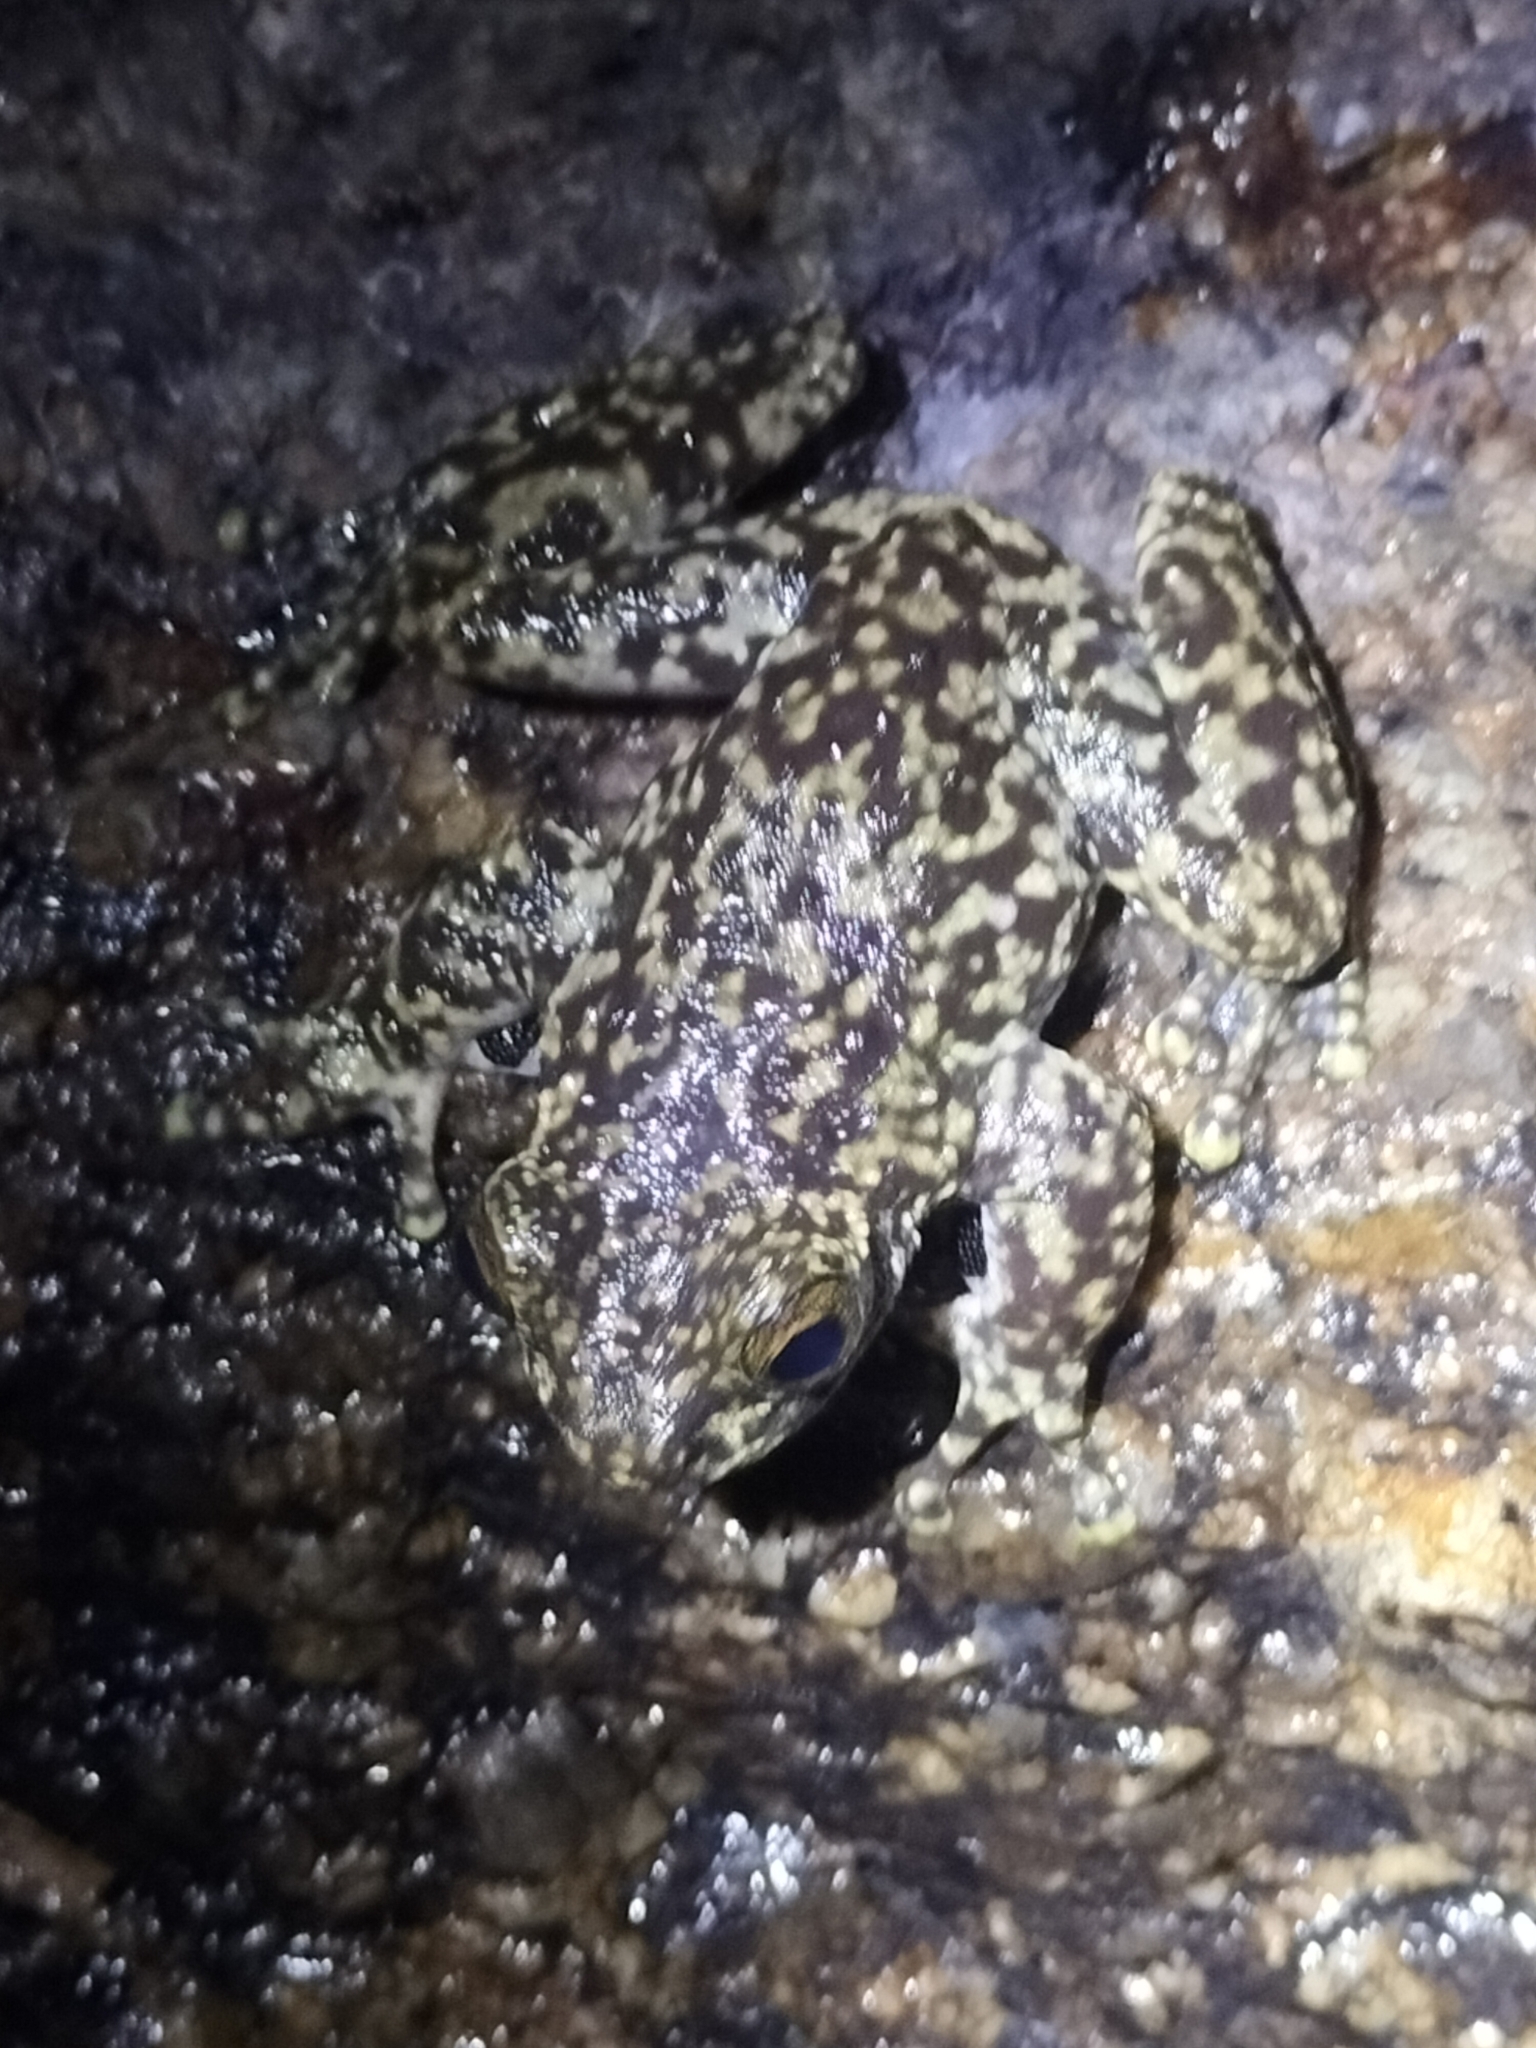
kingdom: Animalia
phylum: Chordata
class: Amphibia
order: Anura
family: Pelodryadidae
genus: Ranoidea
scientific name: Ranoidea nannotis
